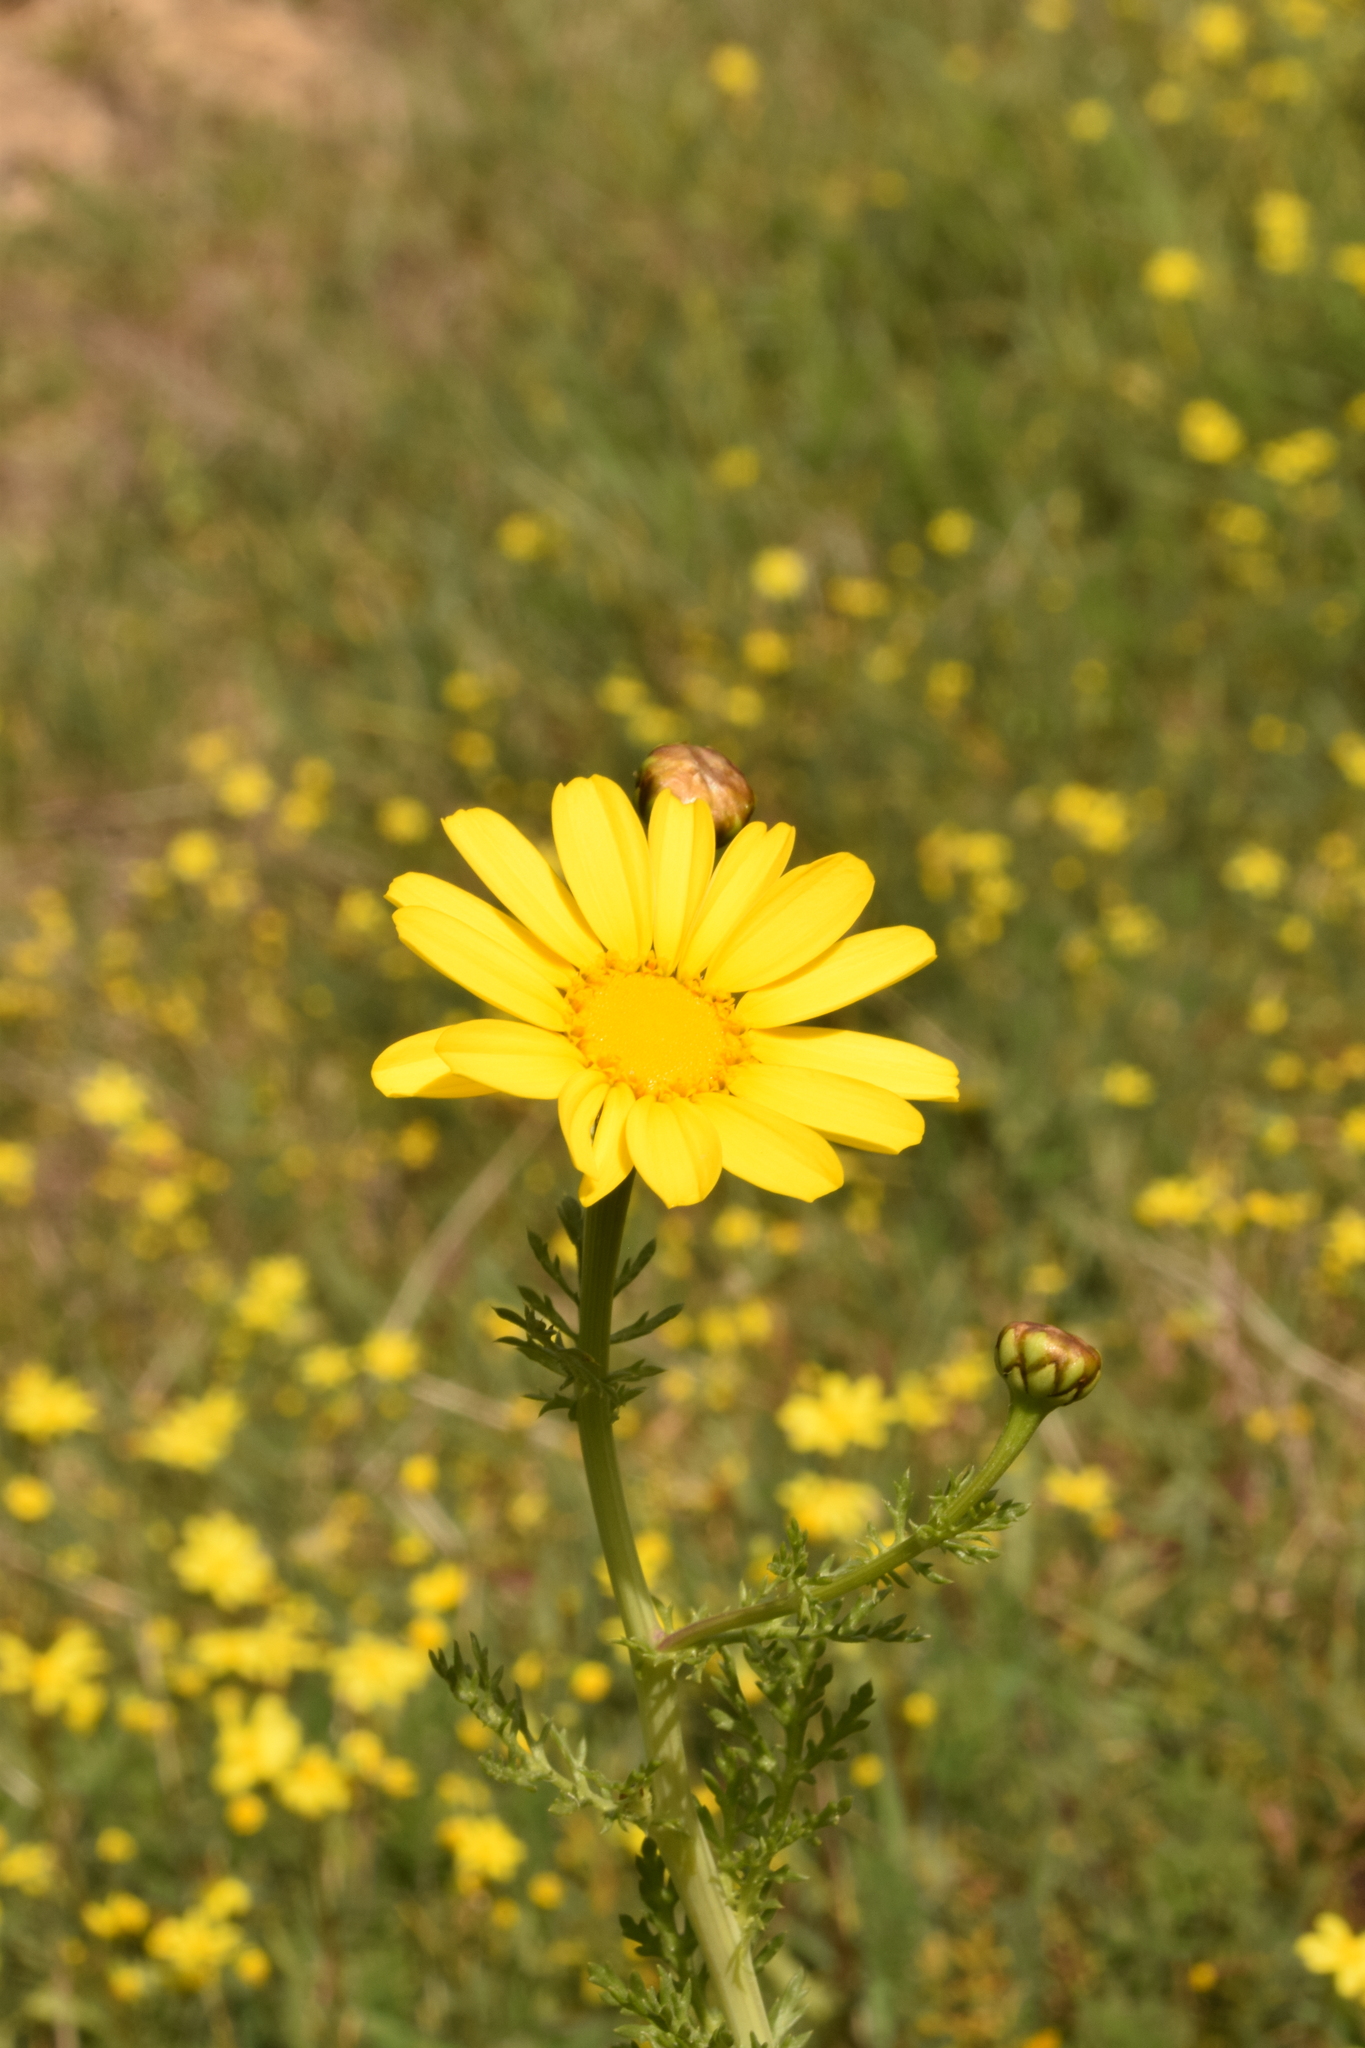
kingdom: Plantae
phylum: Tracheophyta
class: Magnoliopsida
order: Asterales
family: Asteraceae
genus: Glebionis
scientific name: Glebionis coronaria
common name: Crowndaisy
